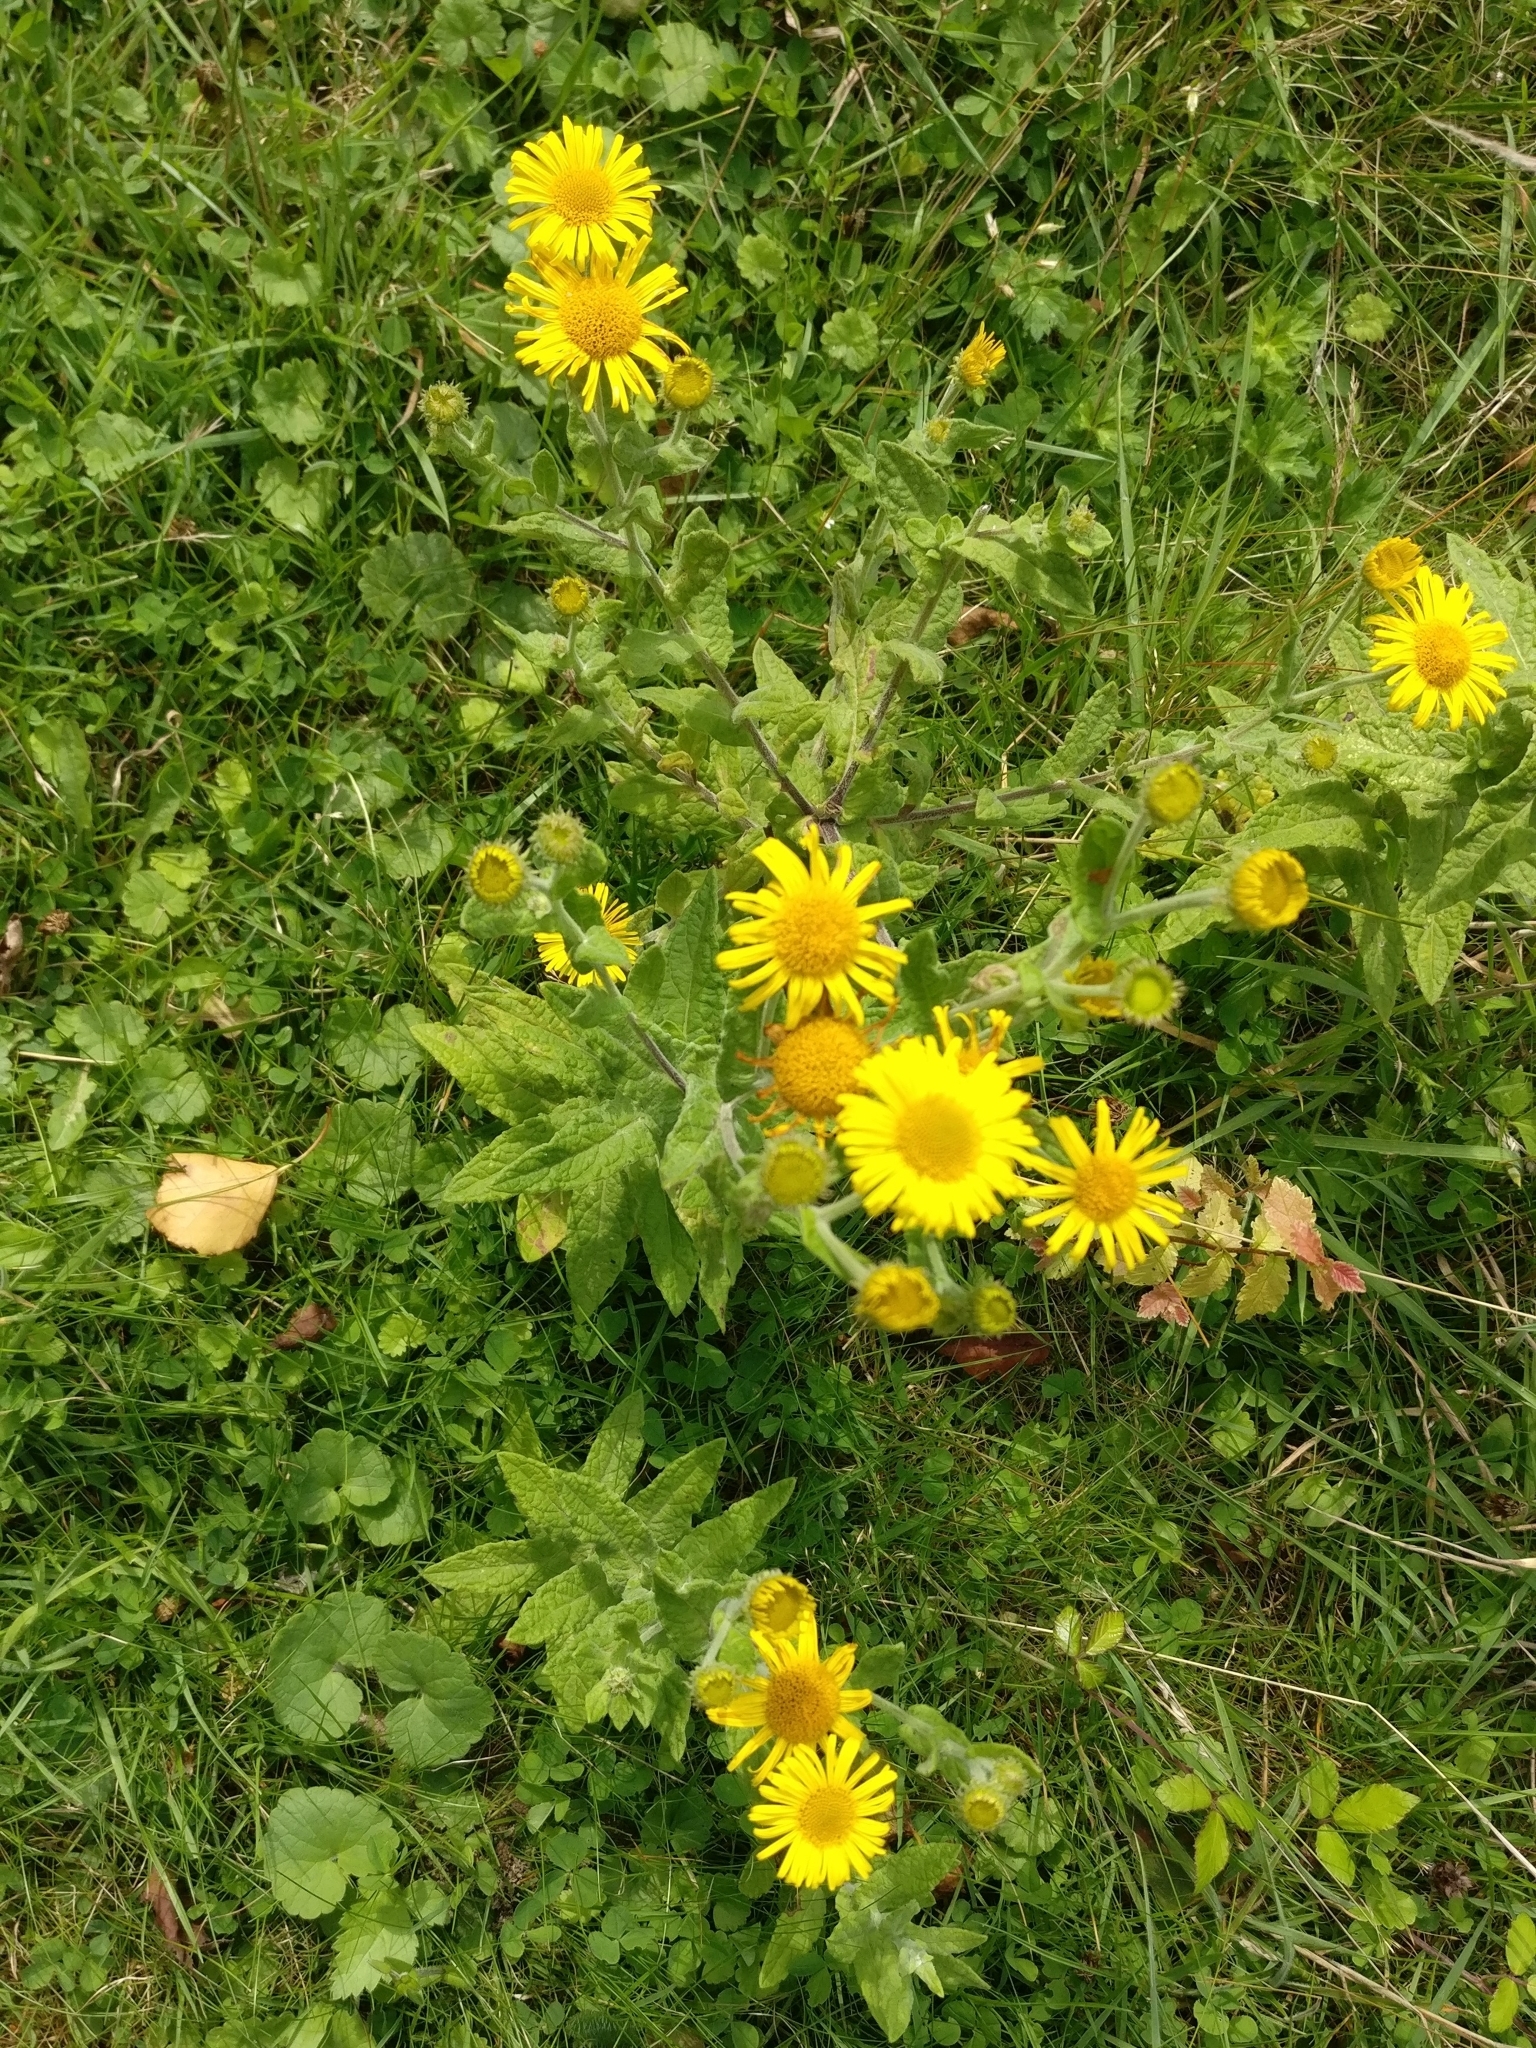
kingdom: Plantae
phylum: Tracheophyta
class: Magnoliopsida
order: Asterales
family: Asteraceae
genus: Pulicaria
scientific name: Pulicaria dysenterica
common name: Common fleabane
